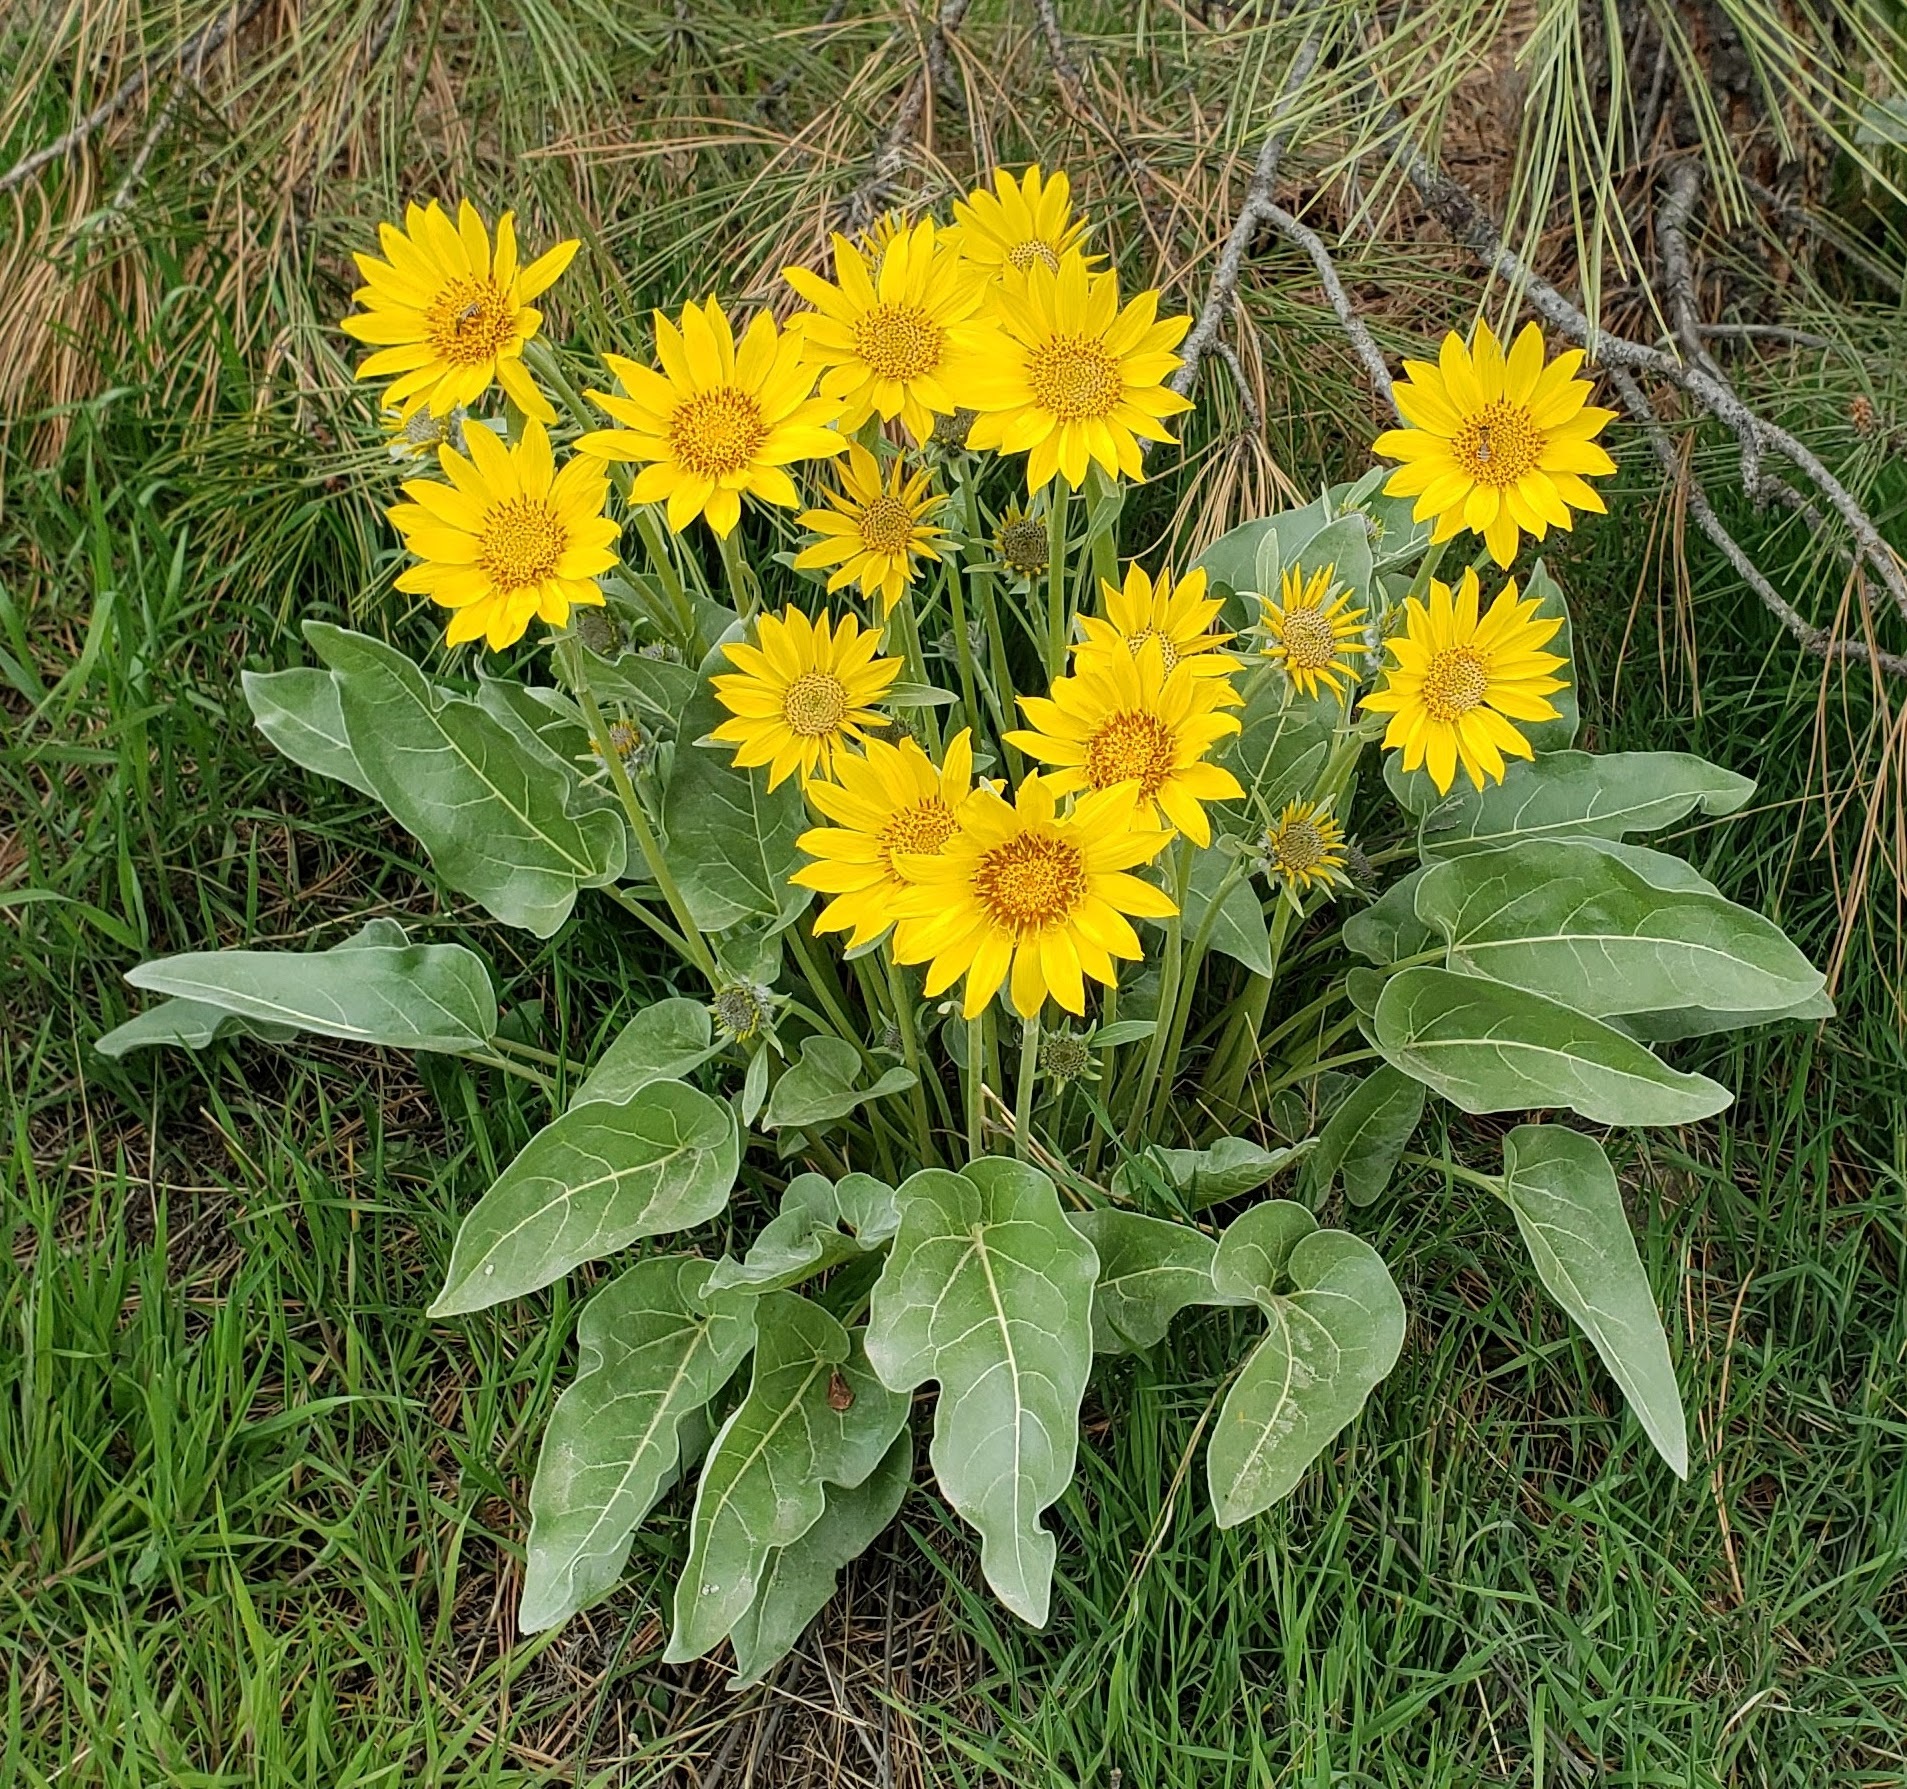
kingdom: Plantae
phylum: Tracheophyta
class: Magnoliopsida
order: Asterales
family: Asteraceae
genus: Wyethia
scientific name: Wyethia sagittata
